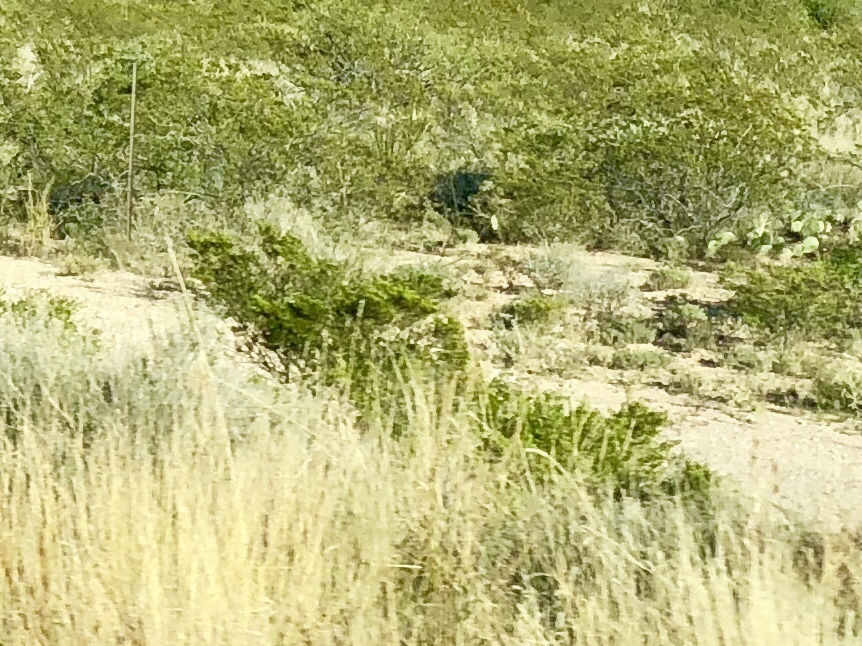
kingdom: Plantae
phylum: Tracheophyta
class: Magnoliopsida
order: Zygophyllales
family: Zygophyllaceae
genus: Larrea
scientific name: Larrea tridentata
